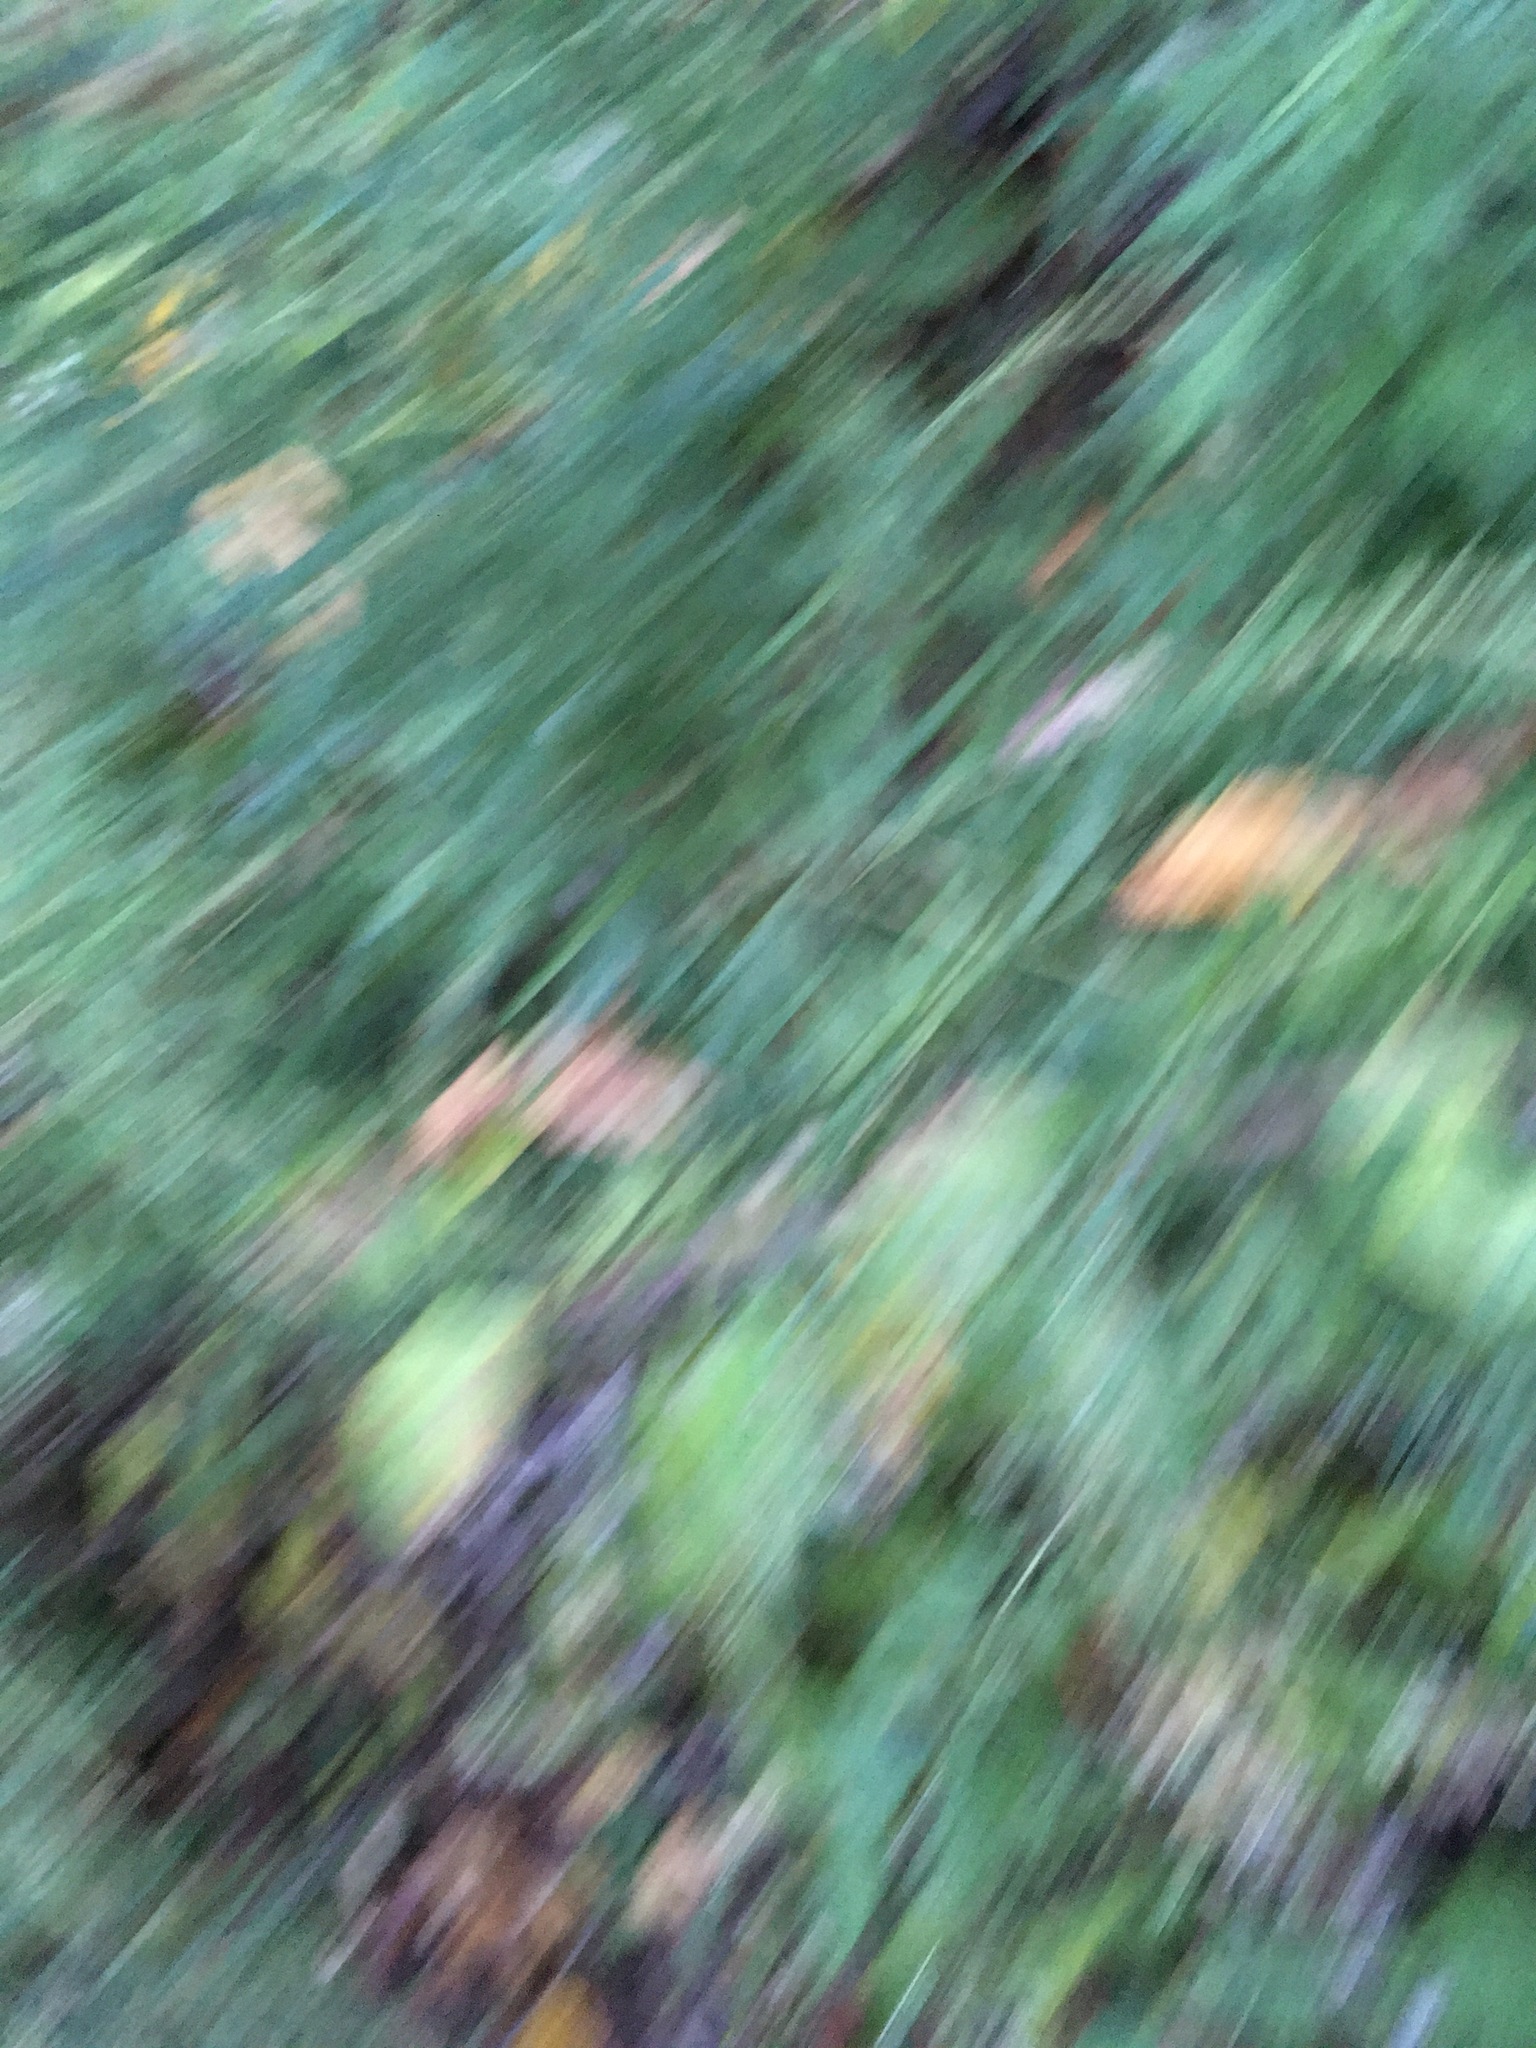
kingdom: Plantae
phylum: Tracheophyta
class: Magnoliopsida
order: Asterales
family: Asteraceae
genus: Artemisia
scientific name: Artemisia vulgaris
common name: Mugwort
